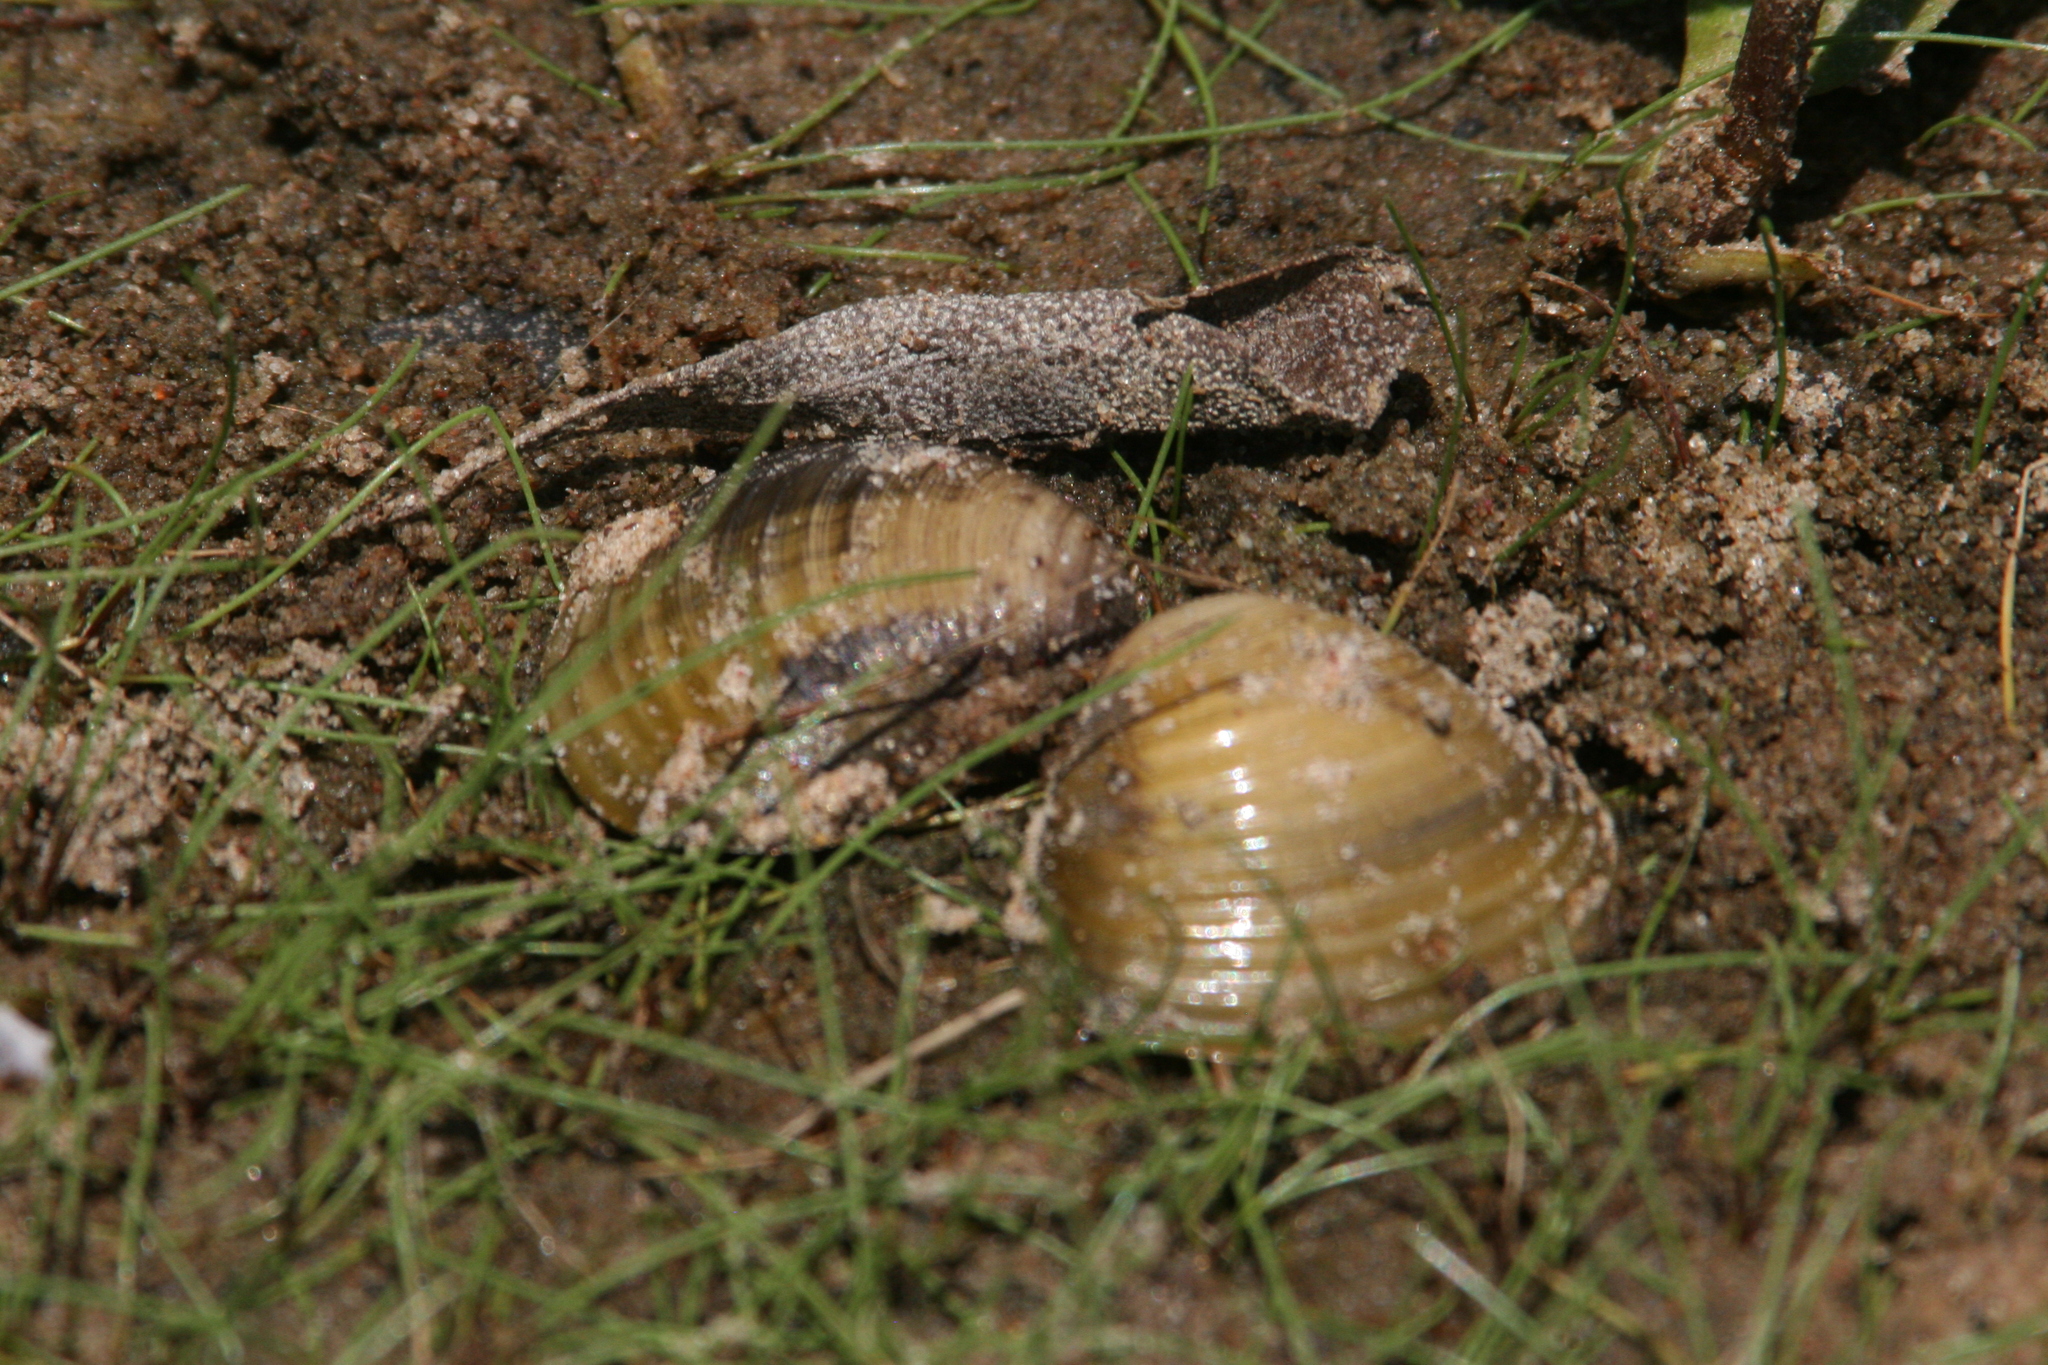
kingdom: Animalia
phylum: Mollusca
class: Bivalvia
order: Venerida
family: Cyrenidae
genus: Corbicula
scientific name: Corbicula fluminea
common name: Asian clam
